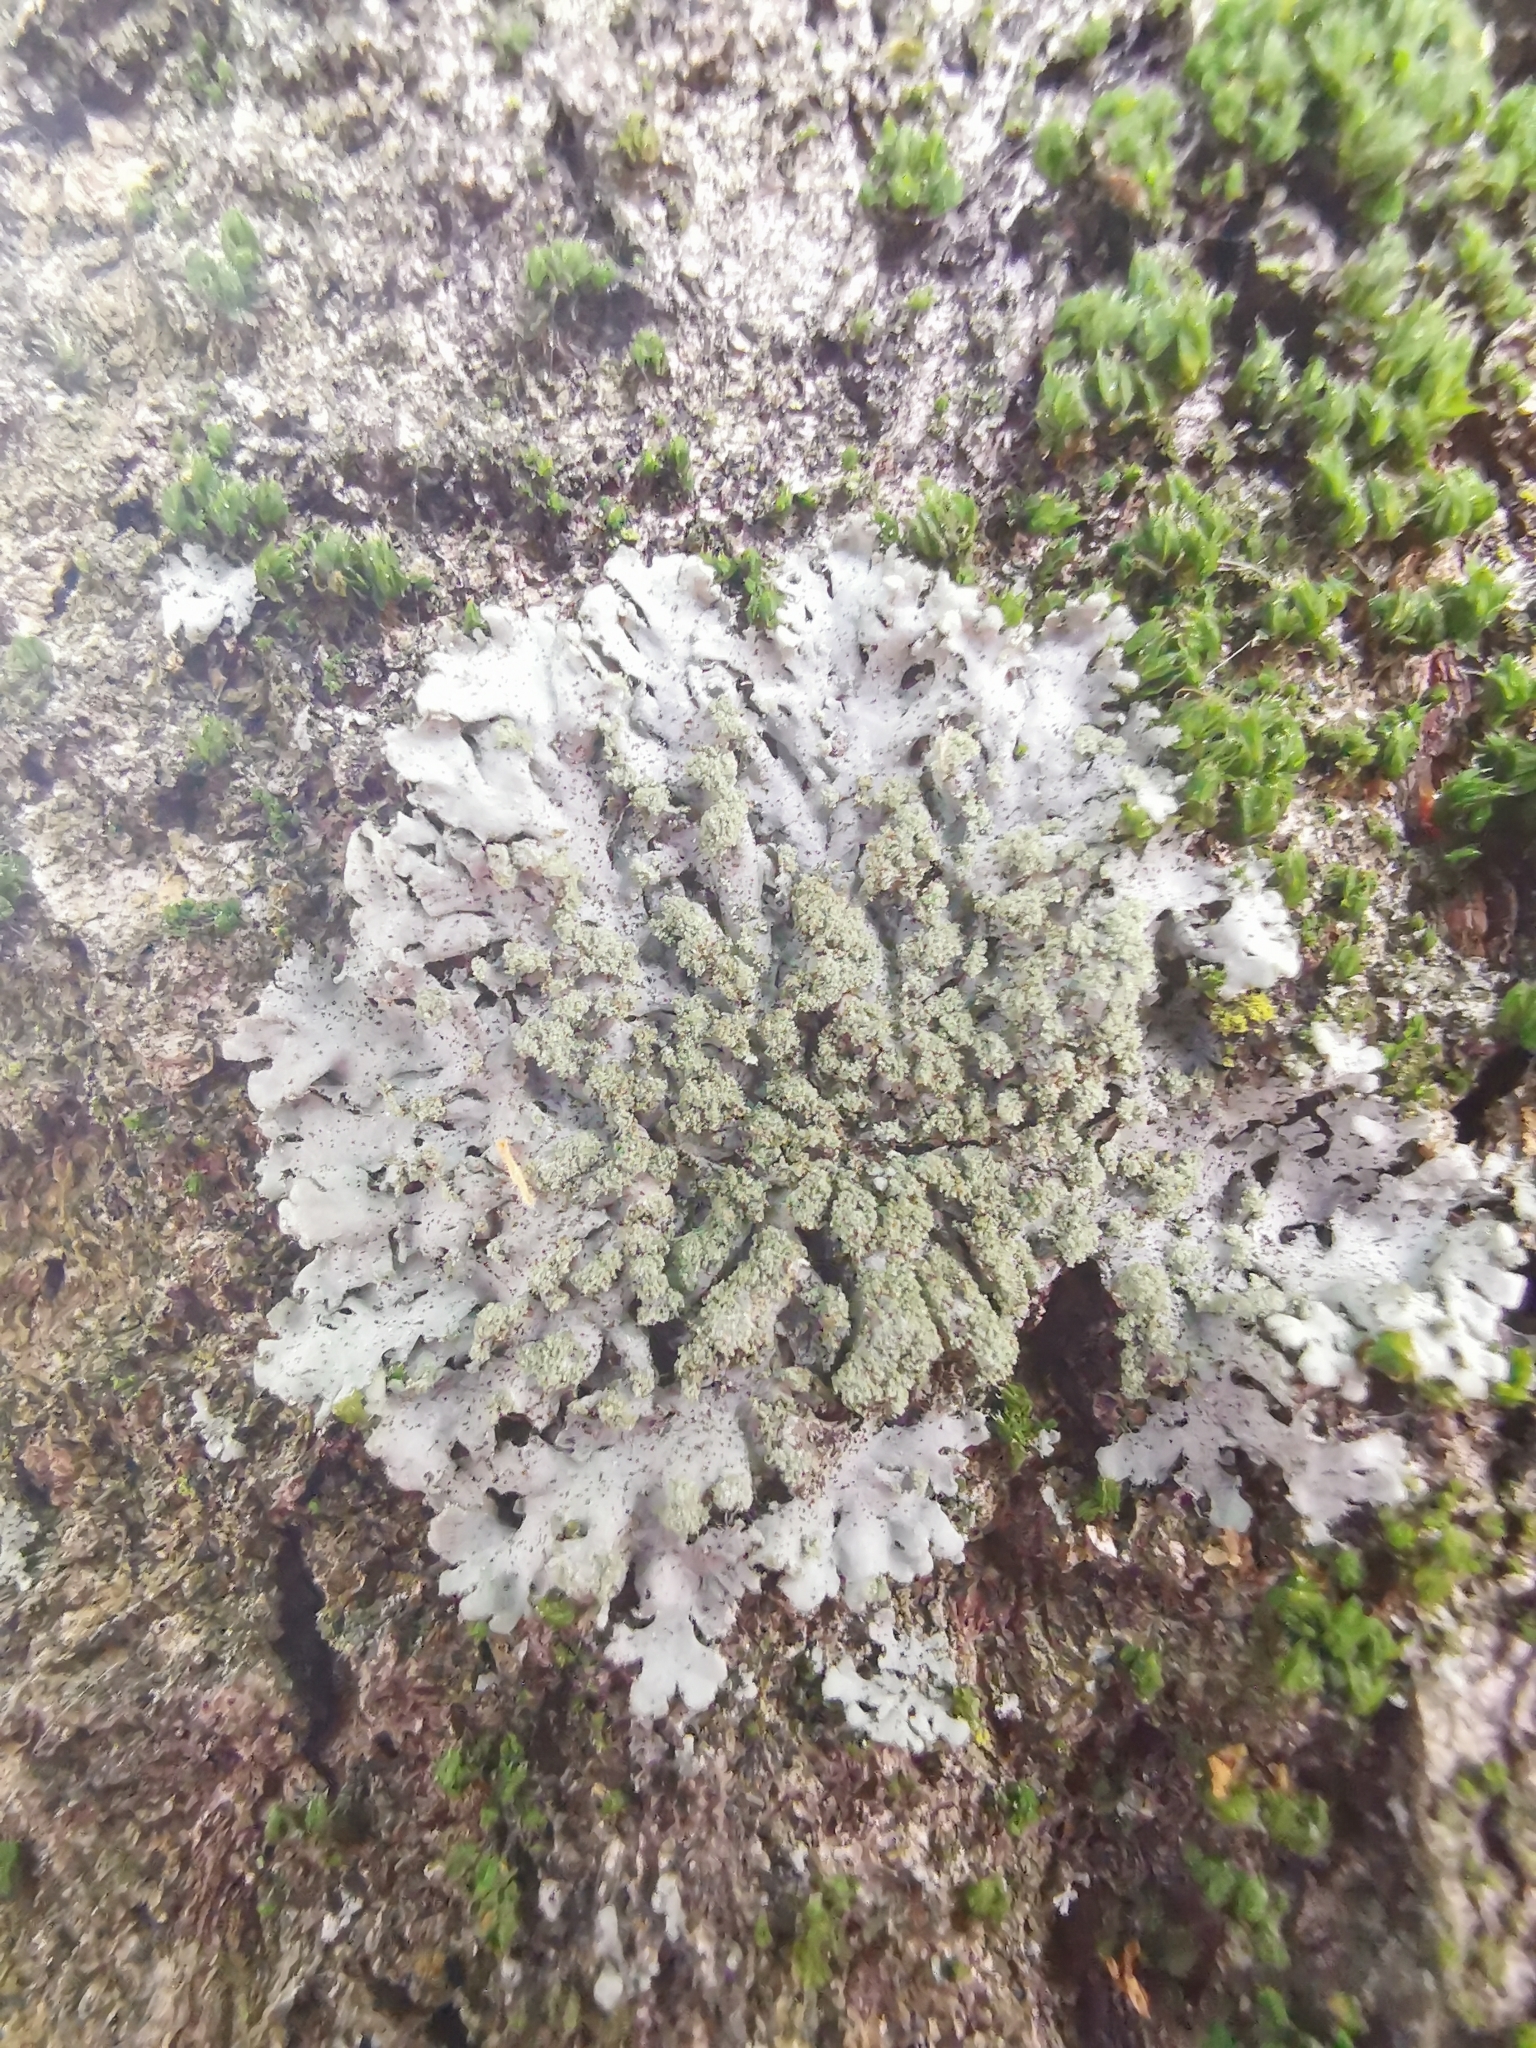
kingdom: Fungi
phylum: Ascomycota
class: Lecanoromycetes
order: Caliciales
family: Physciaceae
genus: Phaeophyscia
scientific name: Phaeophyscia orbicularis
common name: Mealy shadow lichen
